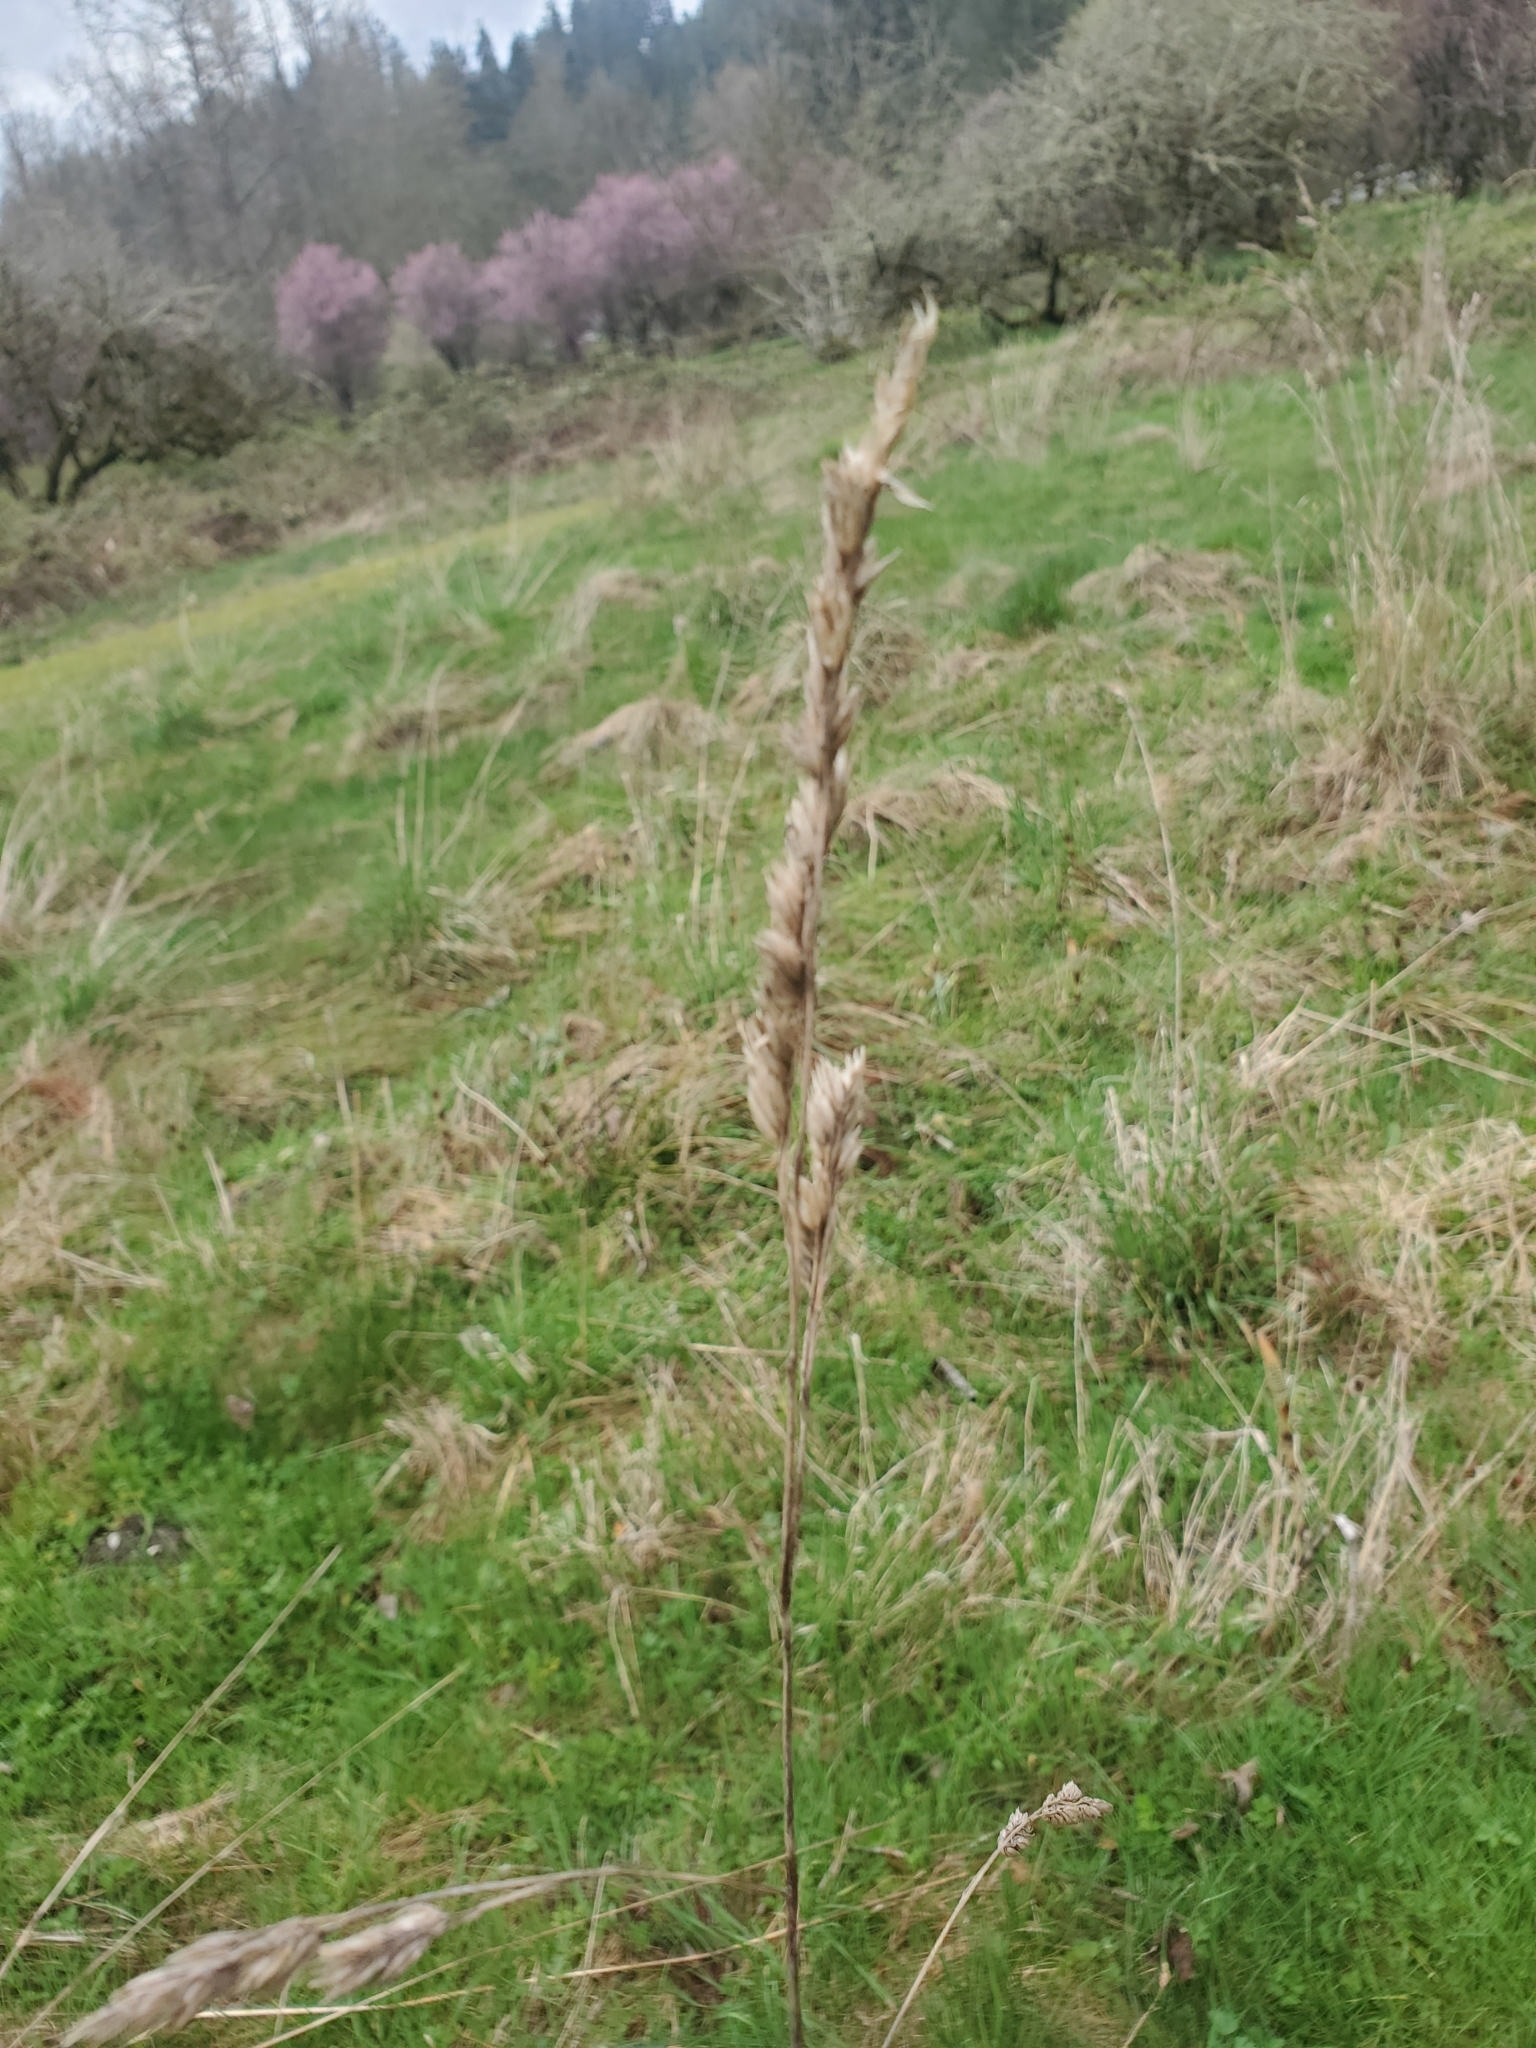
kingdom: Plantae
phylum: Tracheophyta
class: Liliopsida
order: Poales
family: Poaceae
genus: Dactylis
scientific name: Dactylis glomerata
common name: Orchardgrass
